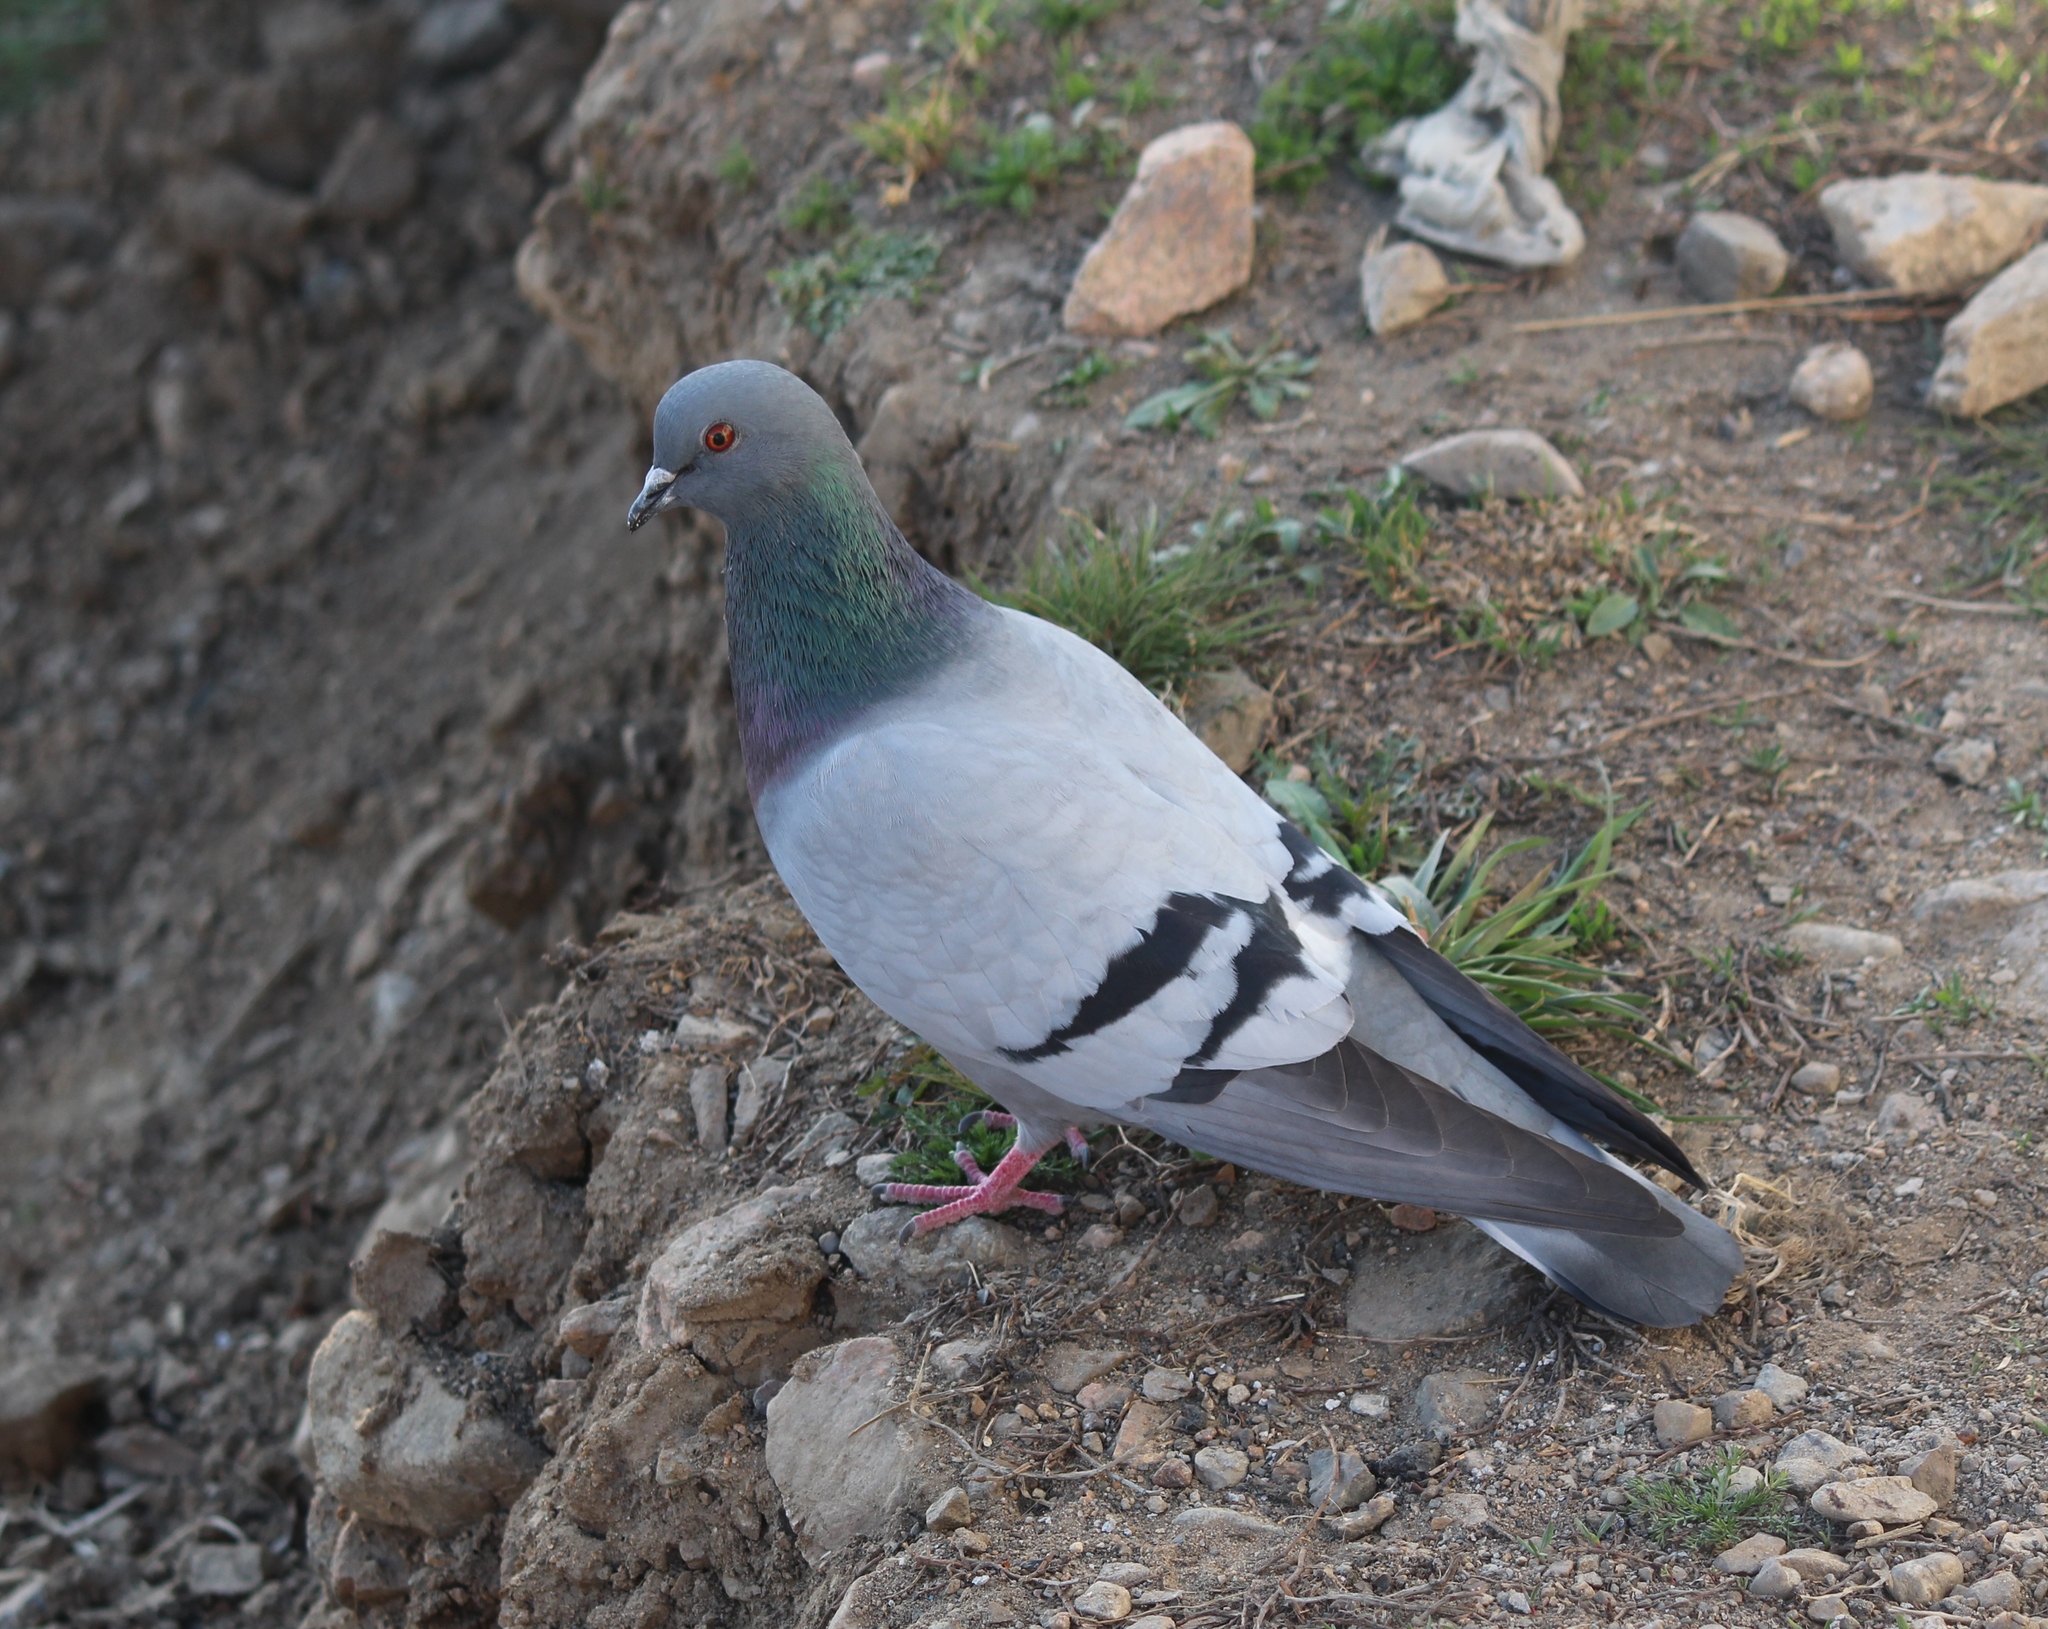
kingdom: Animalia
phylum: Chordata
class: Aves
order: Columbiformes
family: Columbidae
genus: Columba
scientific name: Columba rupestris
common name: Hill pigeon
